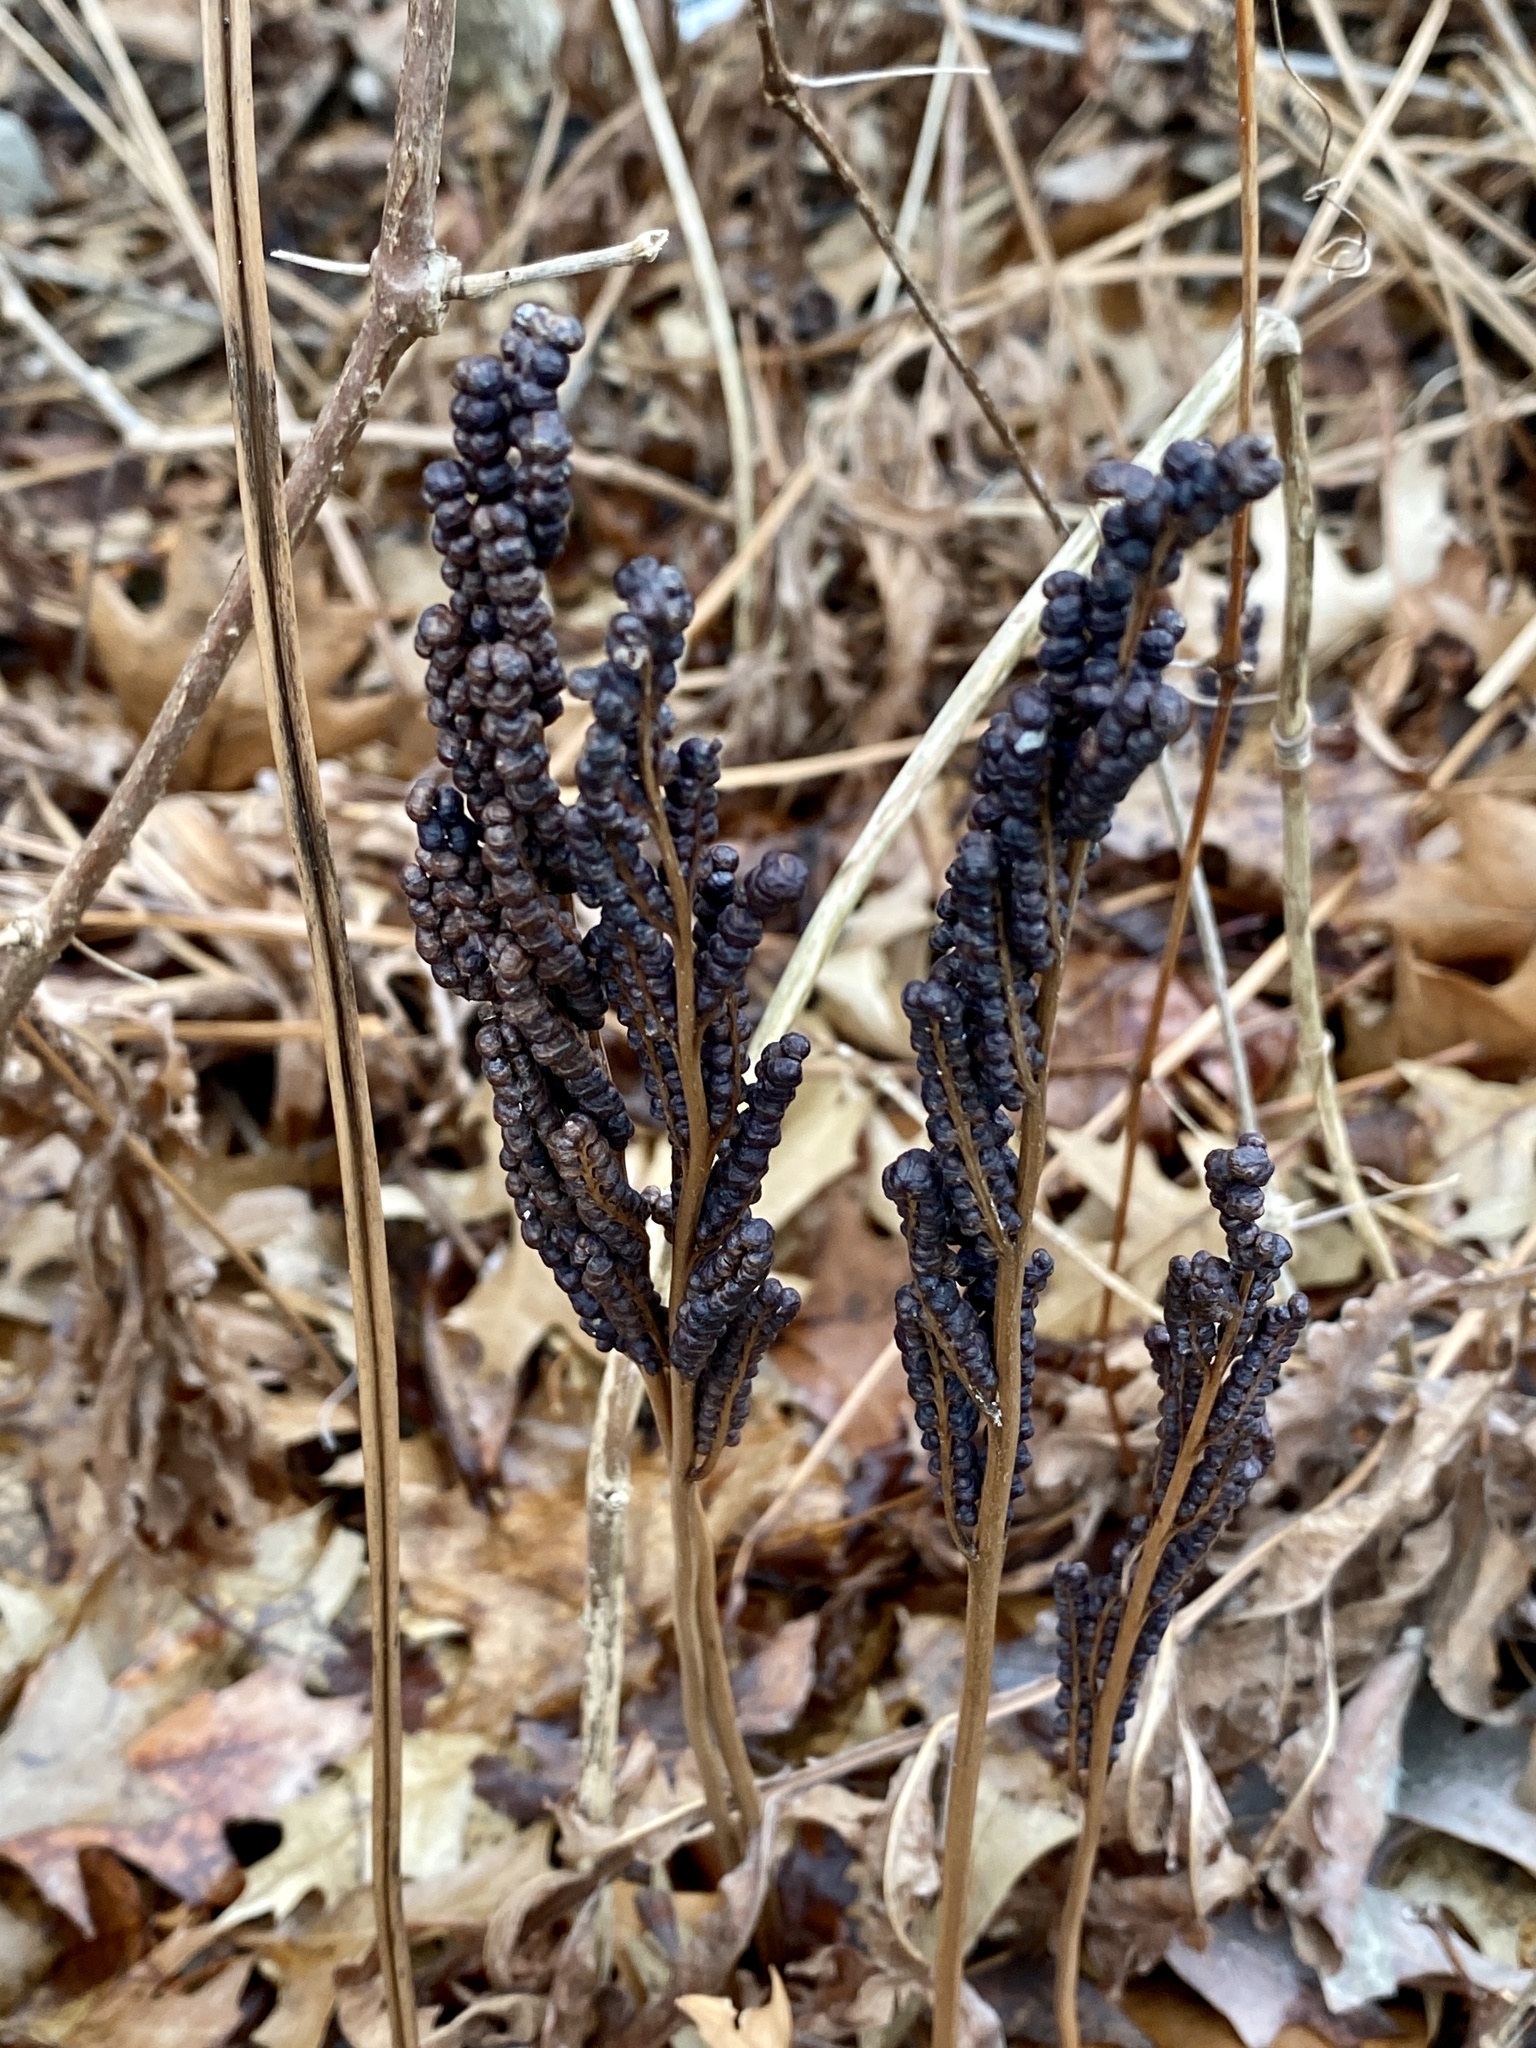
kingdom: Plantae
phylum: Tracheophyta
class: Polypodiopsida
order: Polypodiales
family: Onocleaceae
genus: Onoclea
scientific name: Onoclea sensibilis
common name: Sensitive fern
